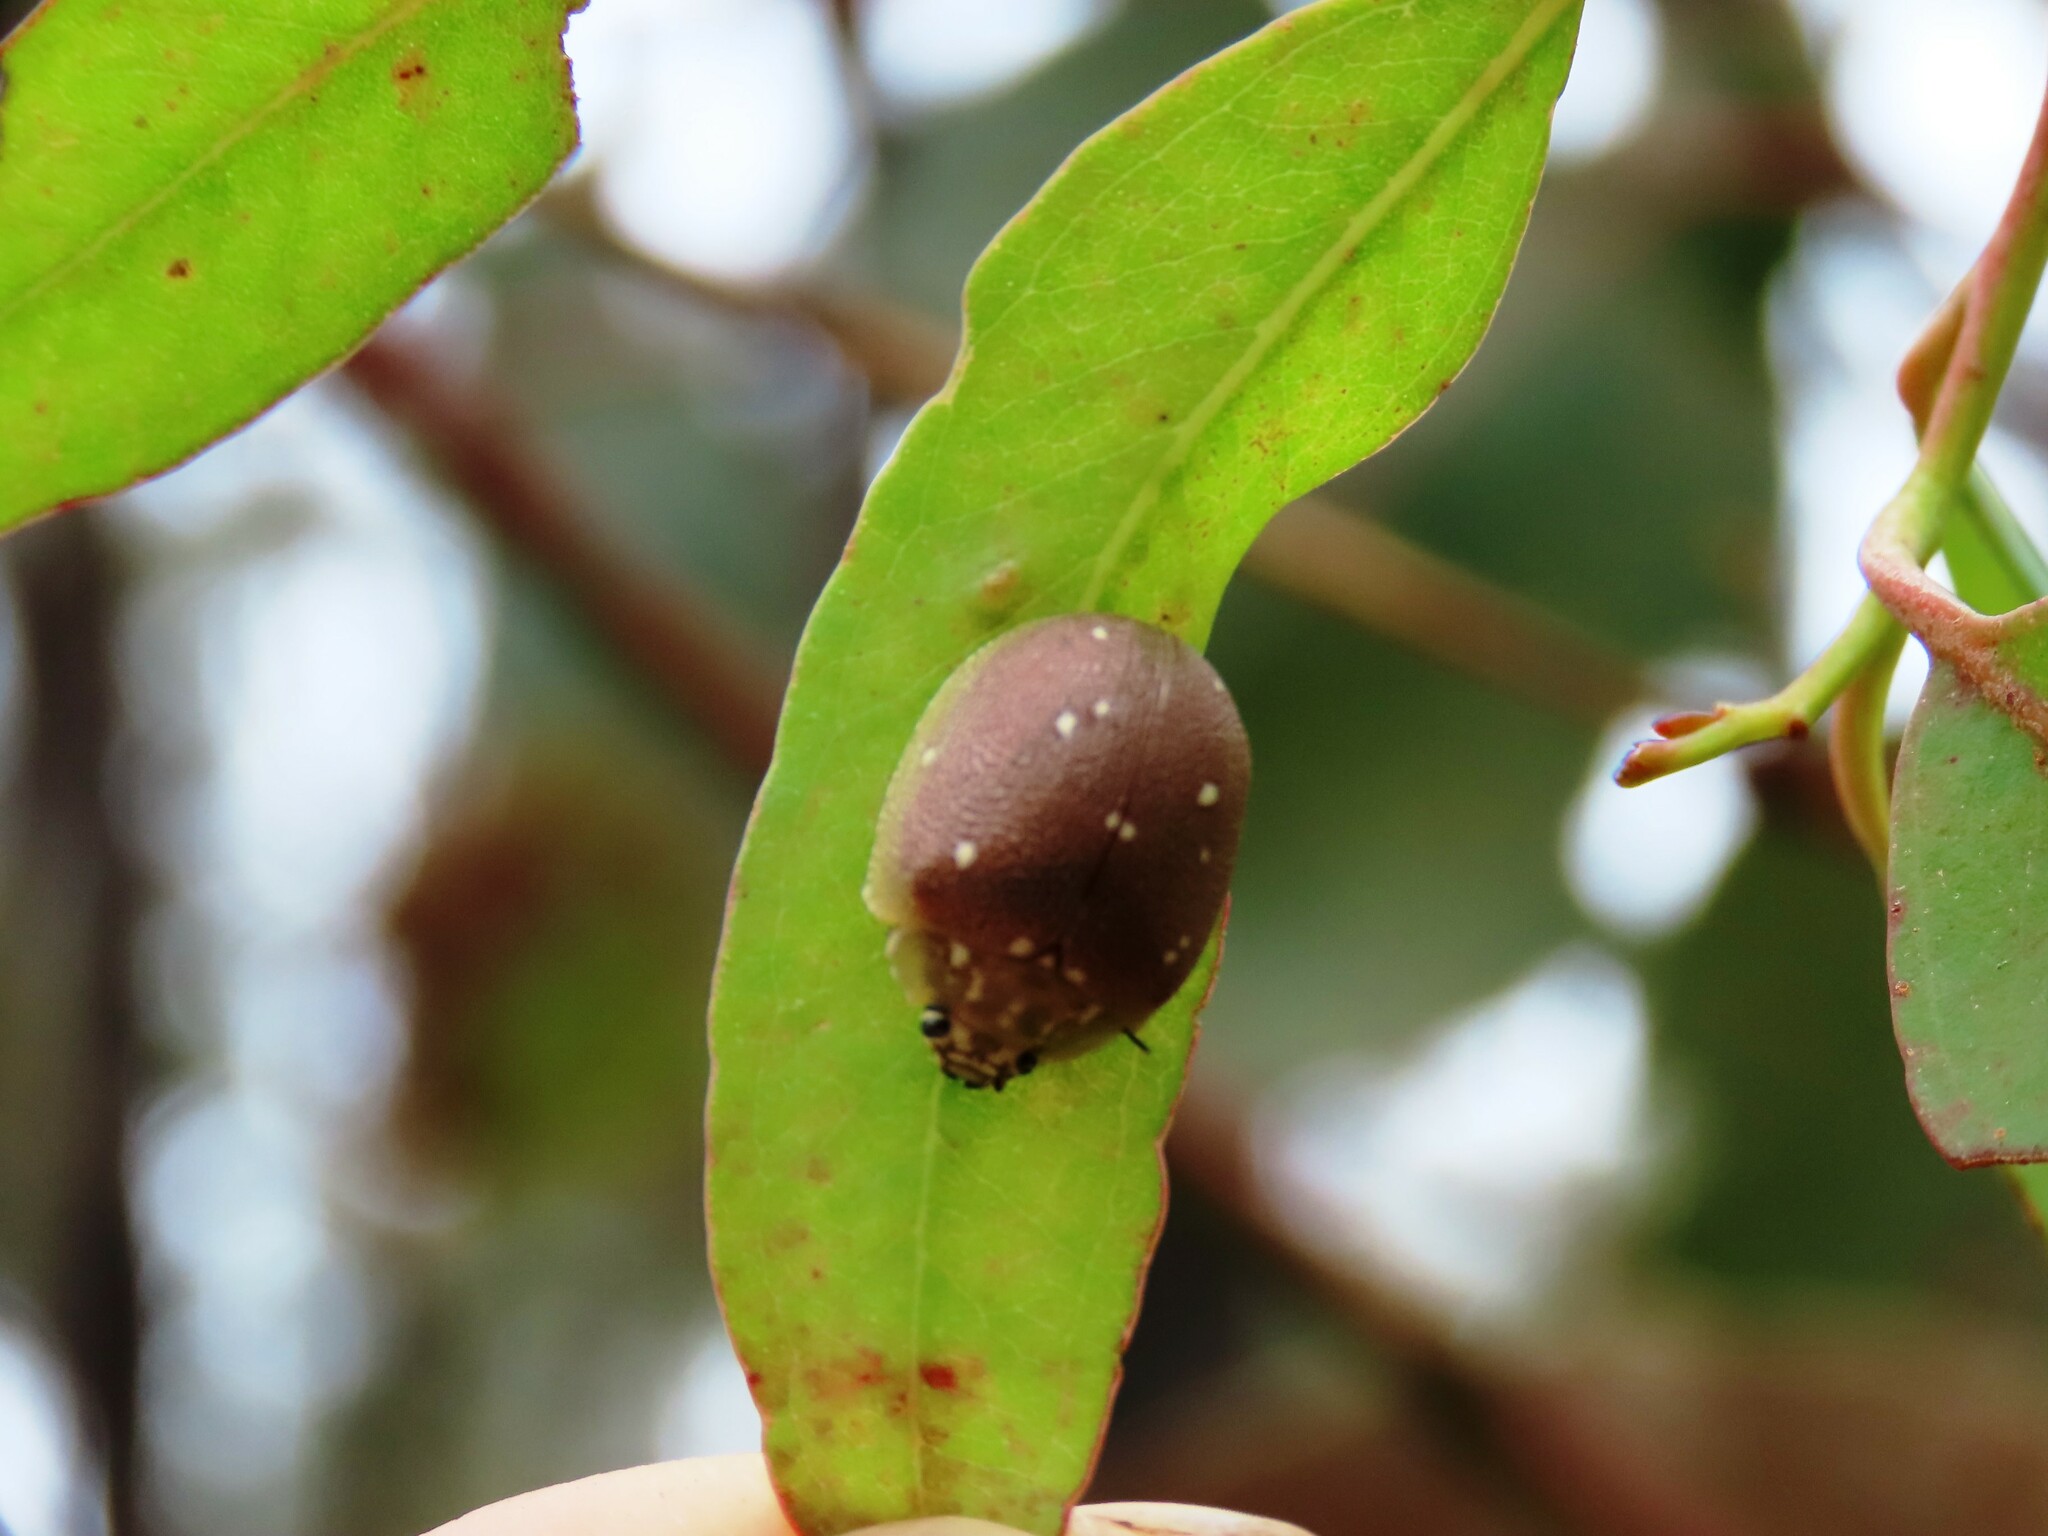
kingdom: Animalia
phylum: Arthropoda
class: Insecta
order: Coleoptera
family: Chrysomelidae
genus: Paropsis
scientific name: Paropsis aegrota
